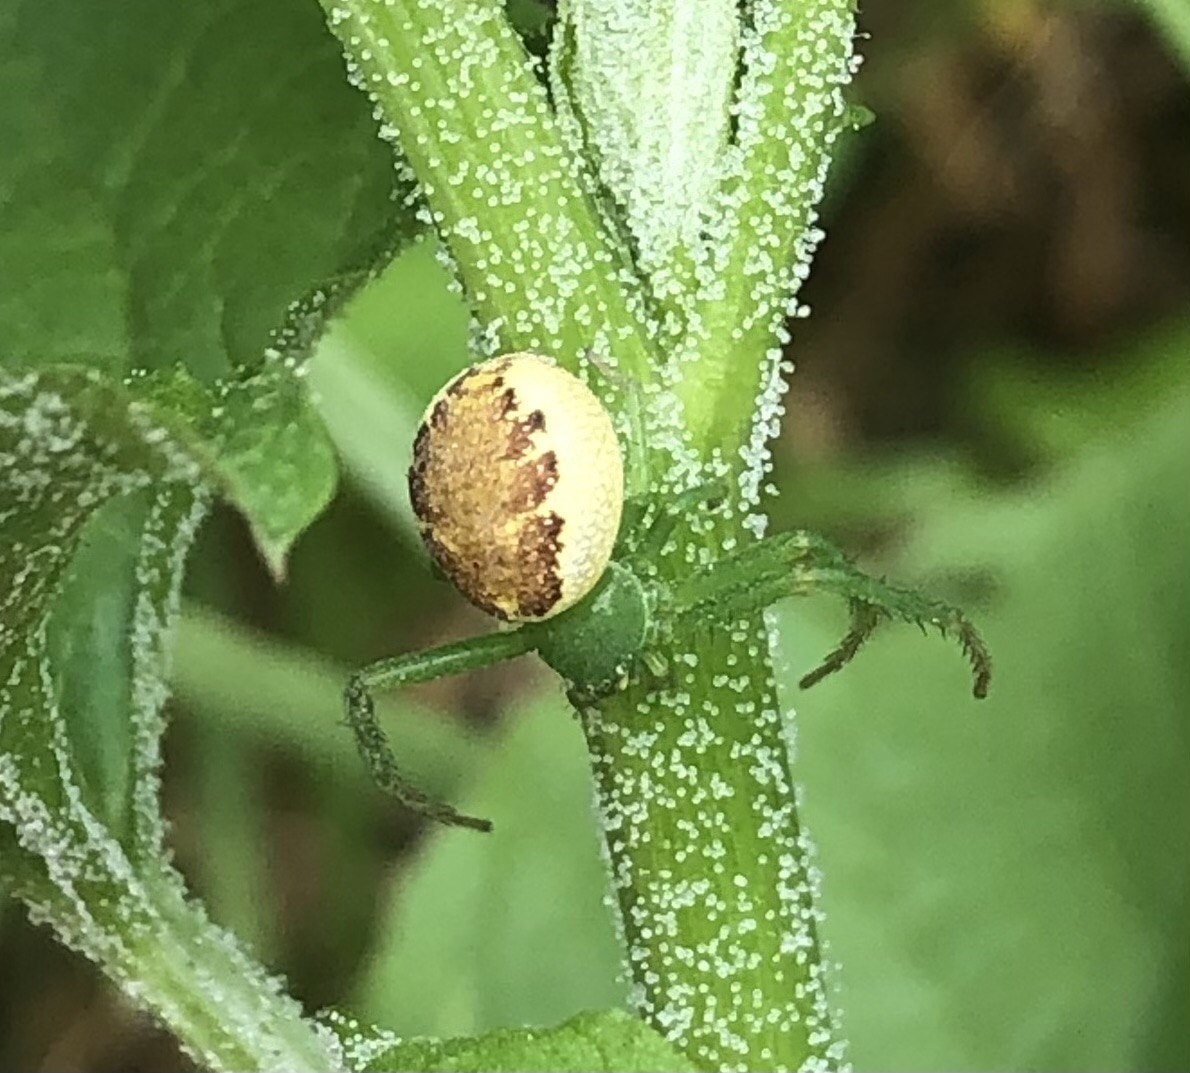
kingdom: Animalia
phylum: Arthropoda
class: Arachnida
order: Araneae
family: Thomisidae
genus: Diaea
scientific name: Diaea dorsata
